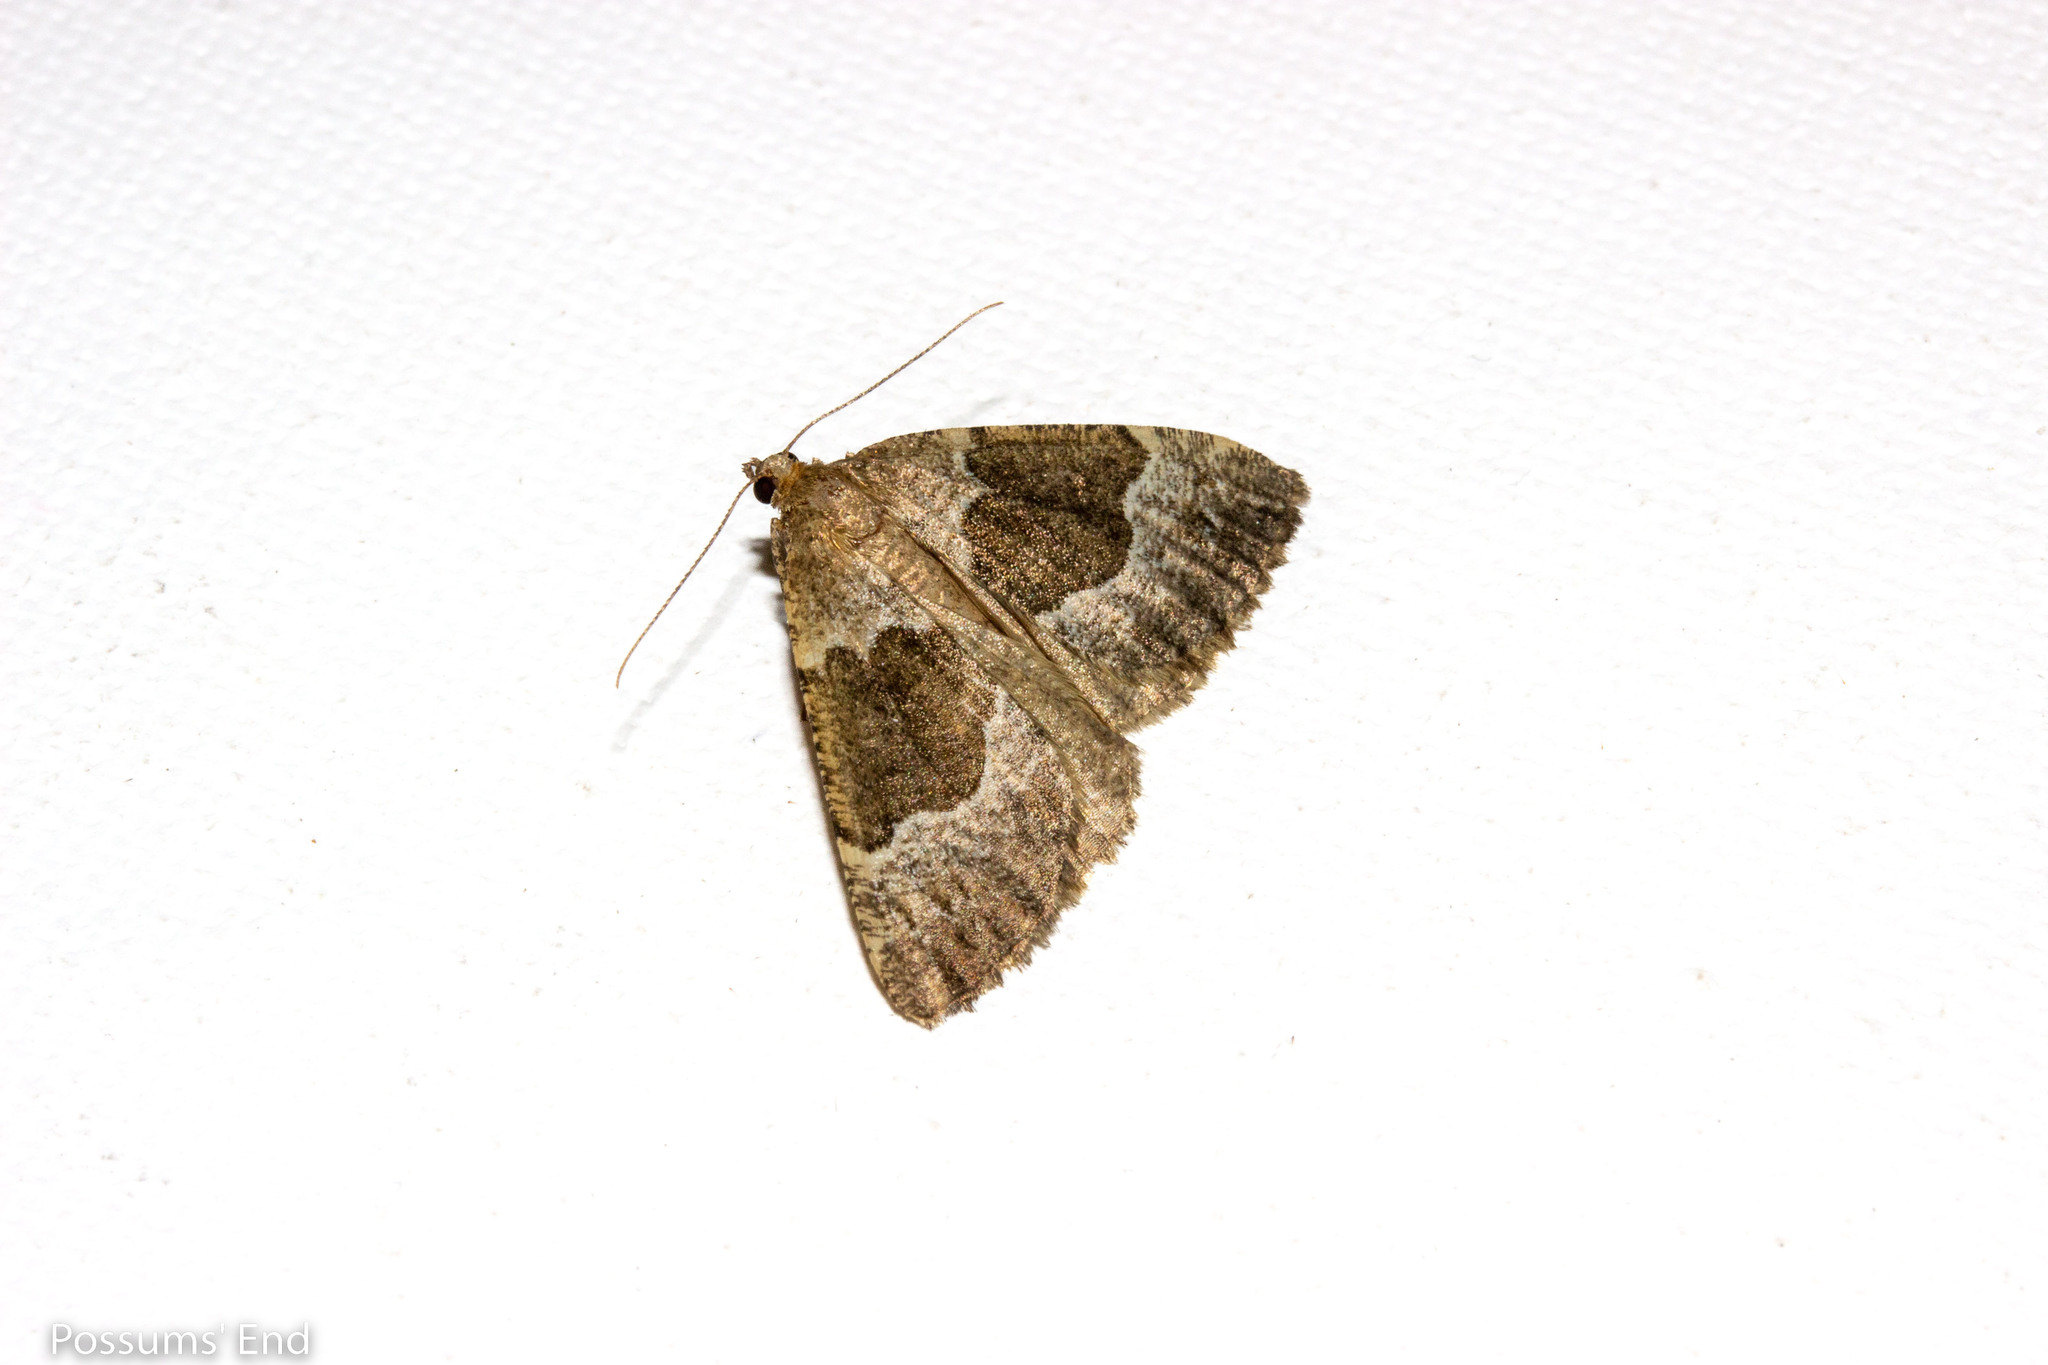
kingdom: Animalia
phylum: Arthropoda
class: Insecta
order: Lepidoptera
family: Geometridae
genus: Pseudocoremia
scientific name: Pseudocoremia
